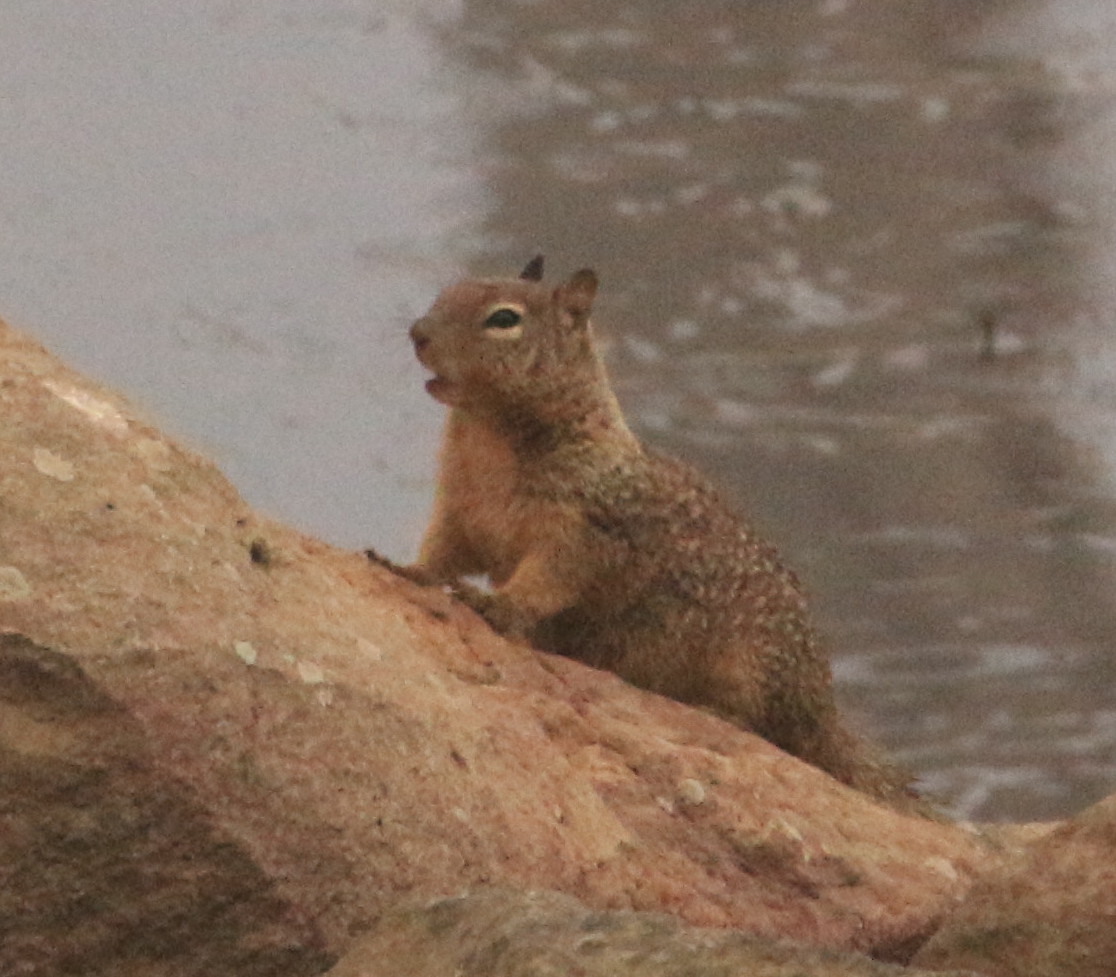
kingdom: Animalia
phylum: Chordata
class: Mammalia
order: Rodentia
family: Sciuridae
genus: Otospermophilus
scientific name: Otospermophilus beecheyi
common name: California ground squirrel
